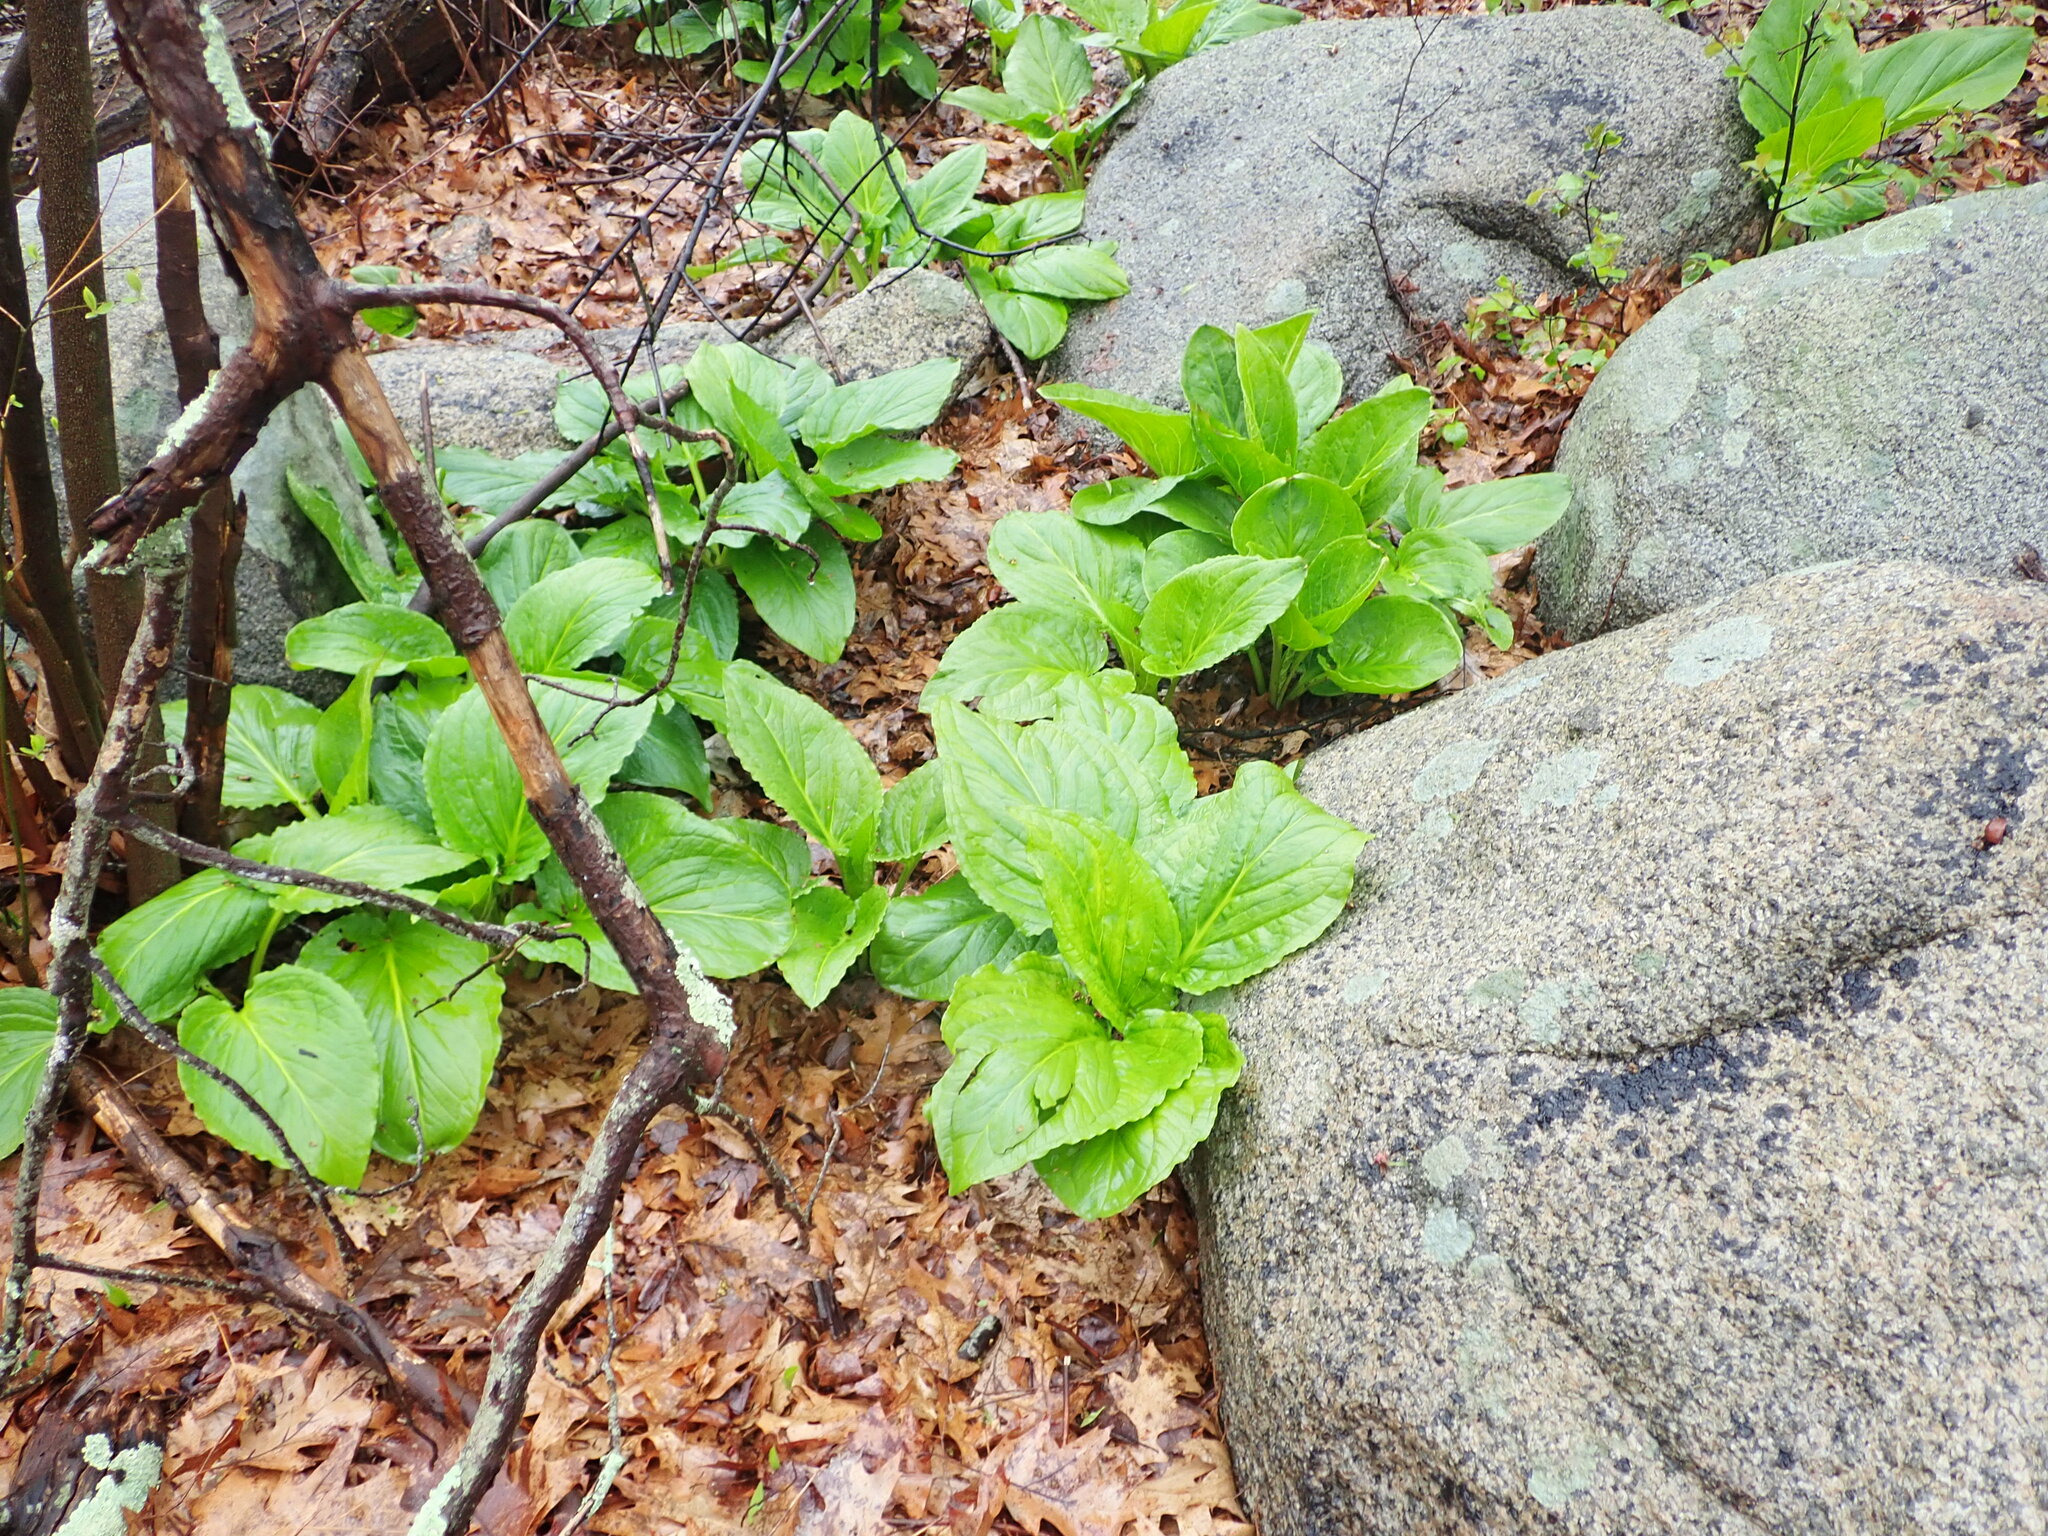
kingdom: Plantae
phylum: Tracheophyta
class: Liliopsida
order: Alismatales
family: Araceae
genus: Symplocarpus
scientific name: Symplocarpus foetidus
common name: Eastern skunk cabbage
